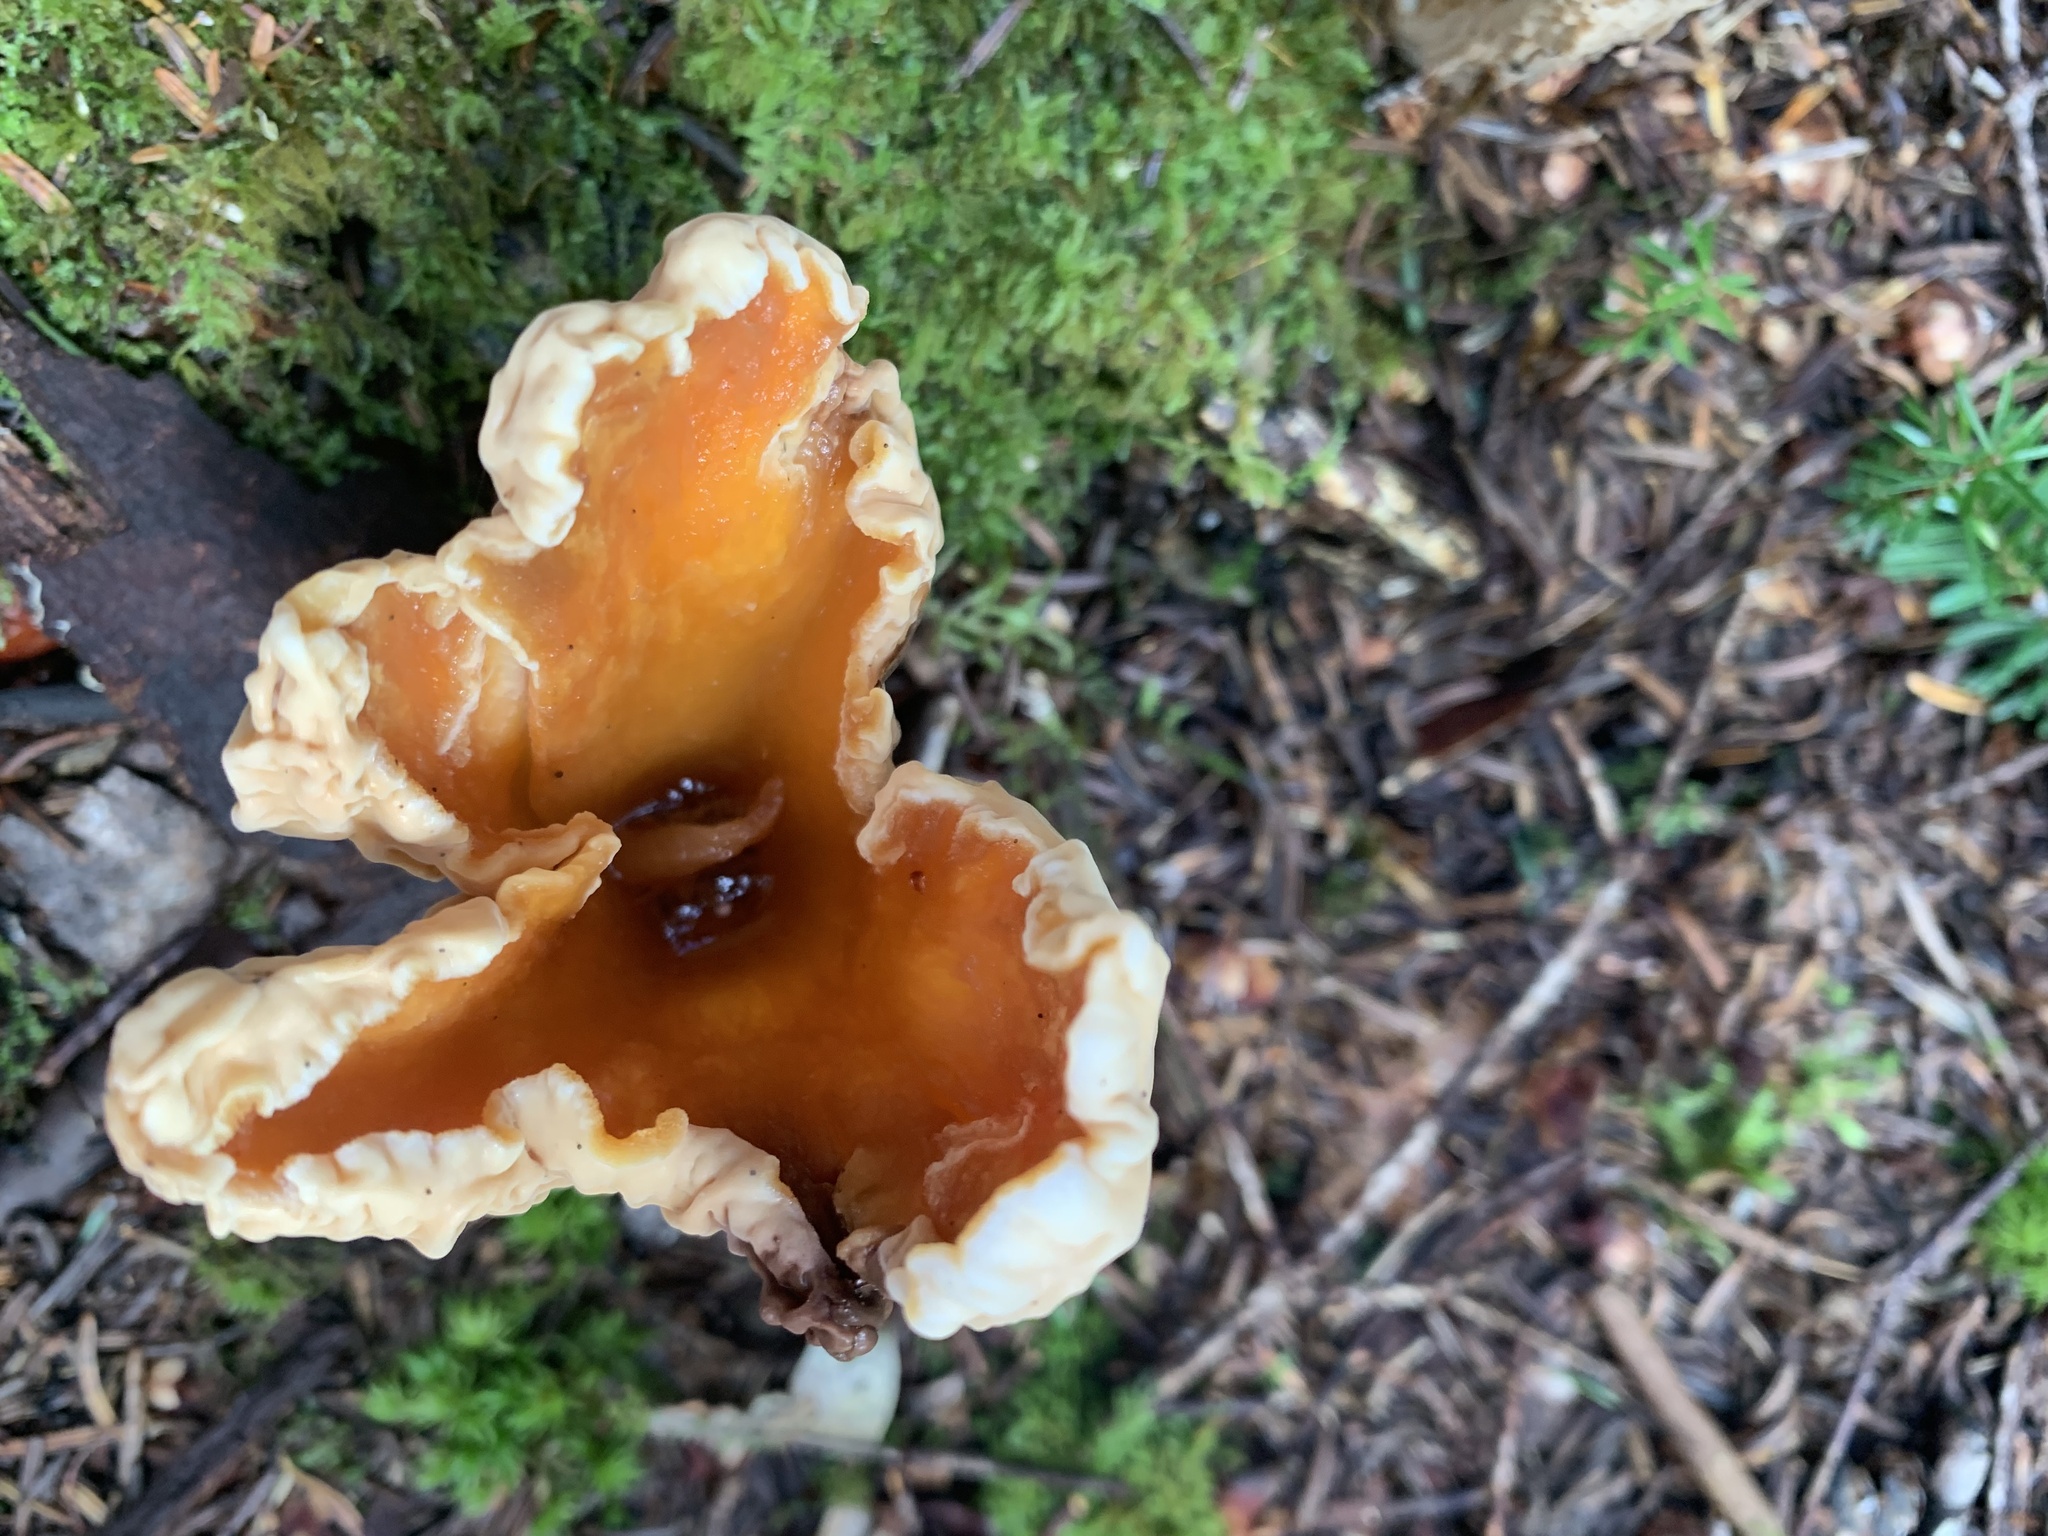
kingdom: Fungi
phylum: Basidiomycota
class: Agaricomycetes
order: Gomphales
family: Gomphaceae
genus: Turbinellus
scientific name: Turbinellus floccosus
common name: Scaly chanterelle
